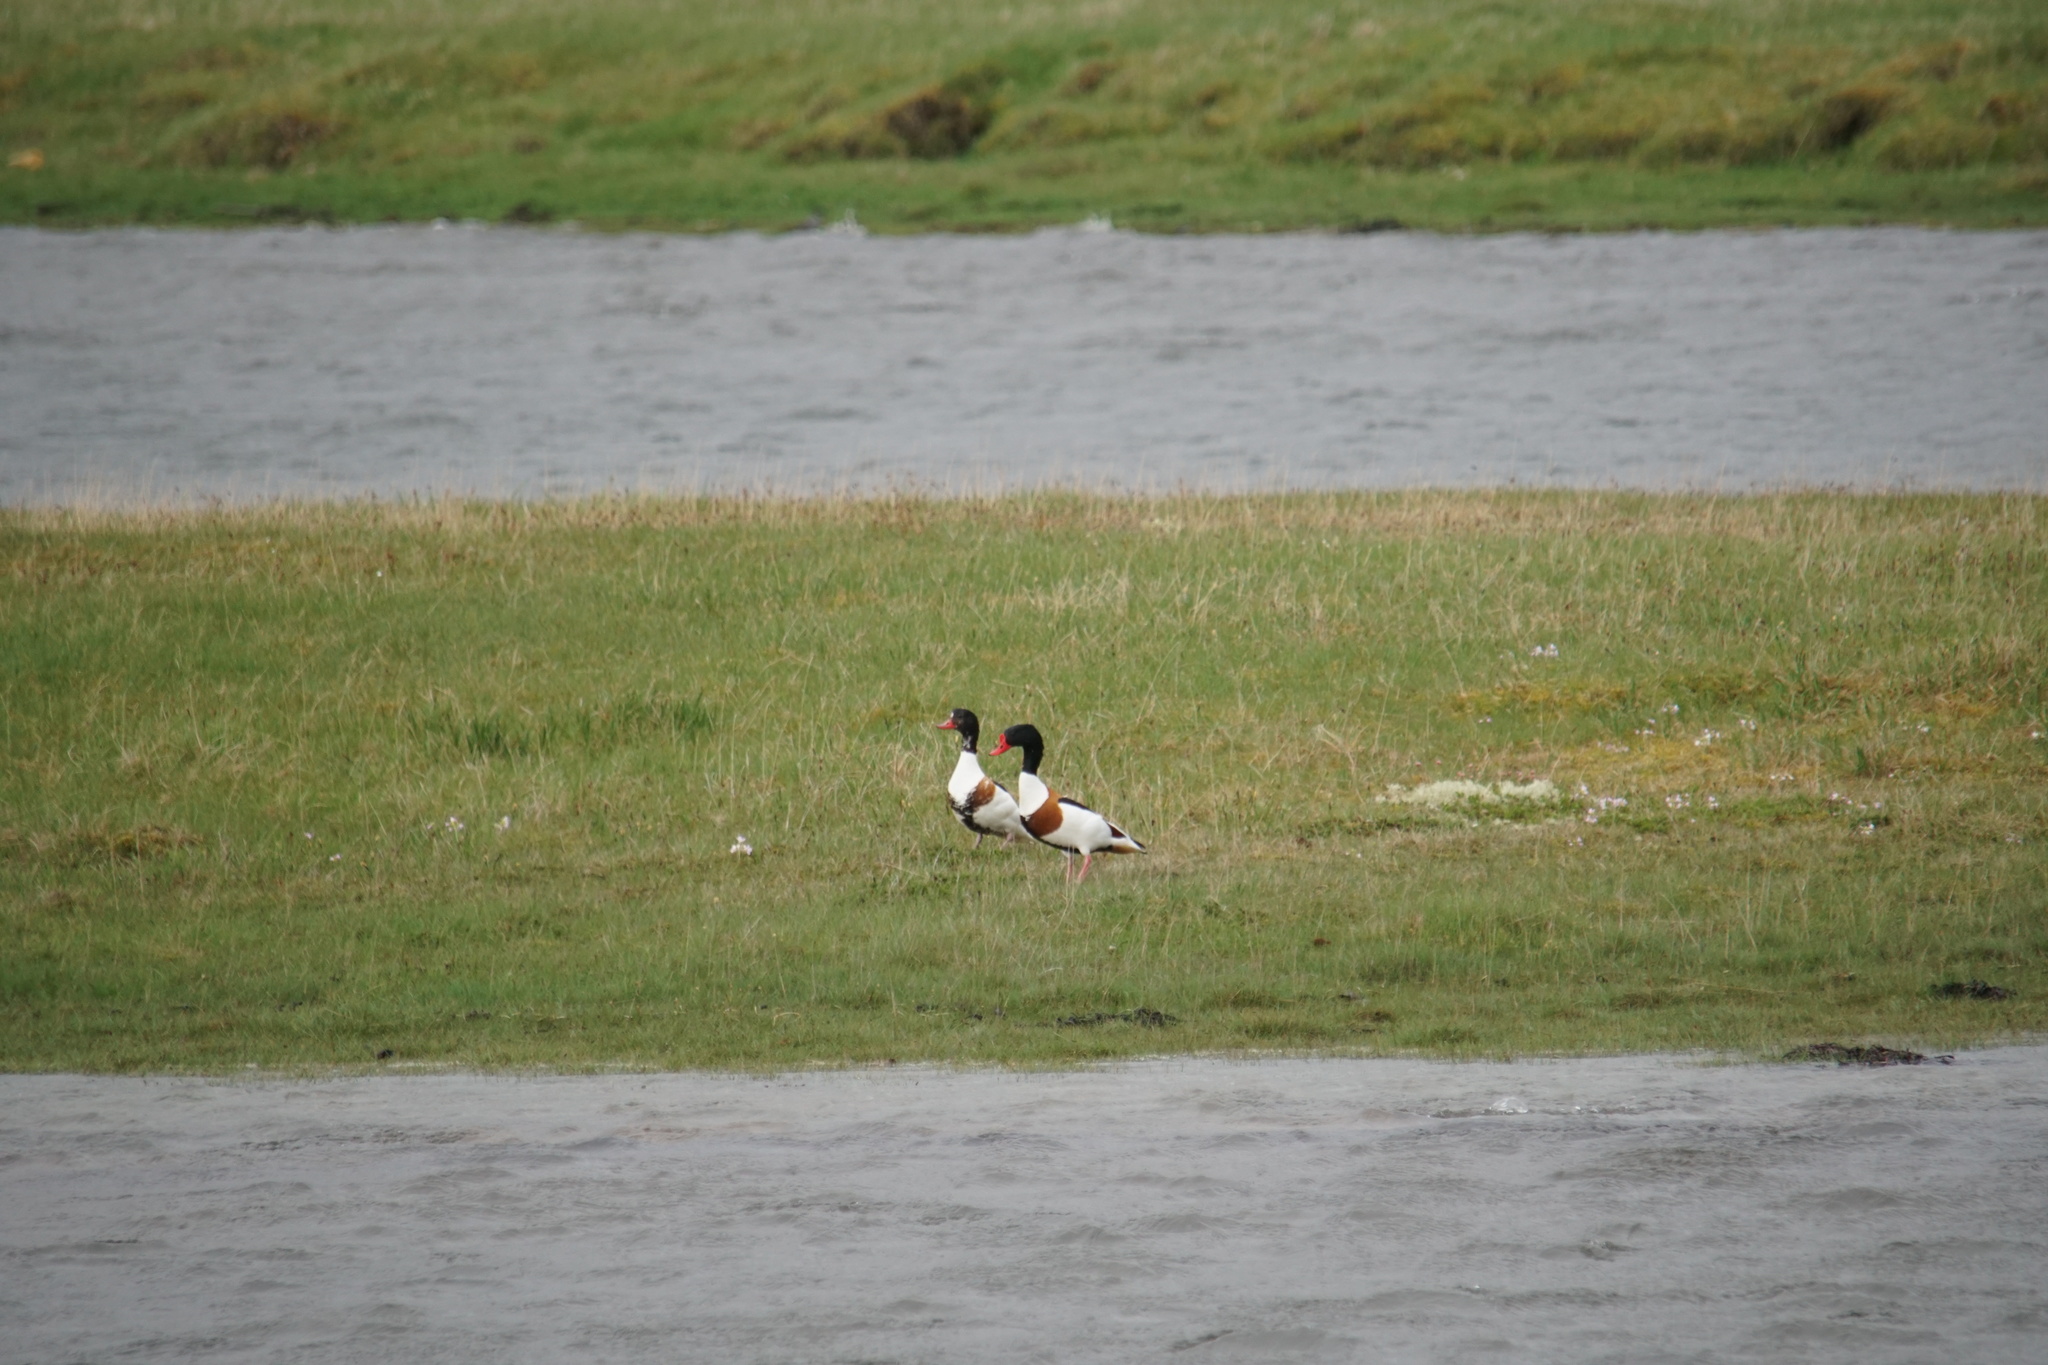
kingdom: Animalia
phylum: Chordata
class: Aves
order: Anseriformes
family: Anatidae
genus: Tadorna
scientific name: Tadorna tadorna
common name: Common shelduck
